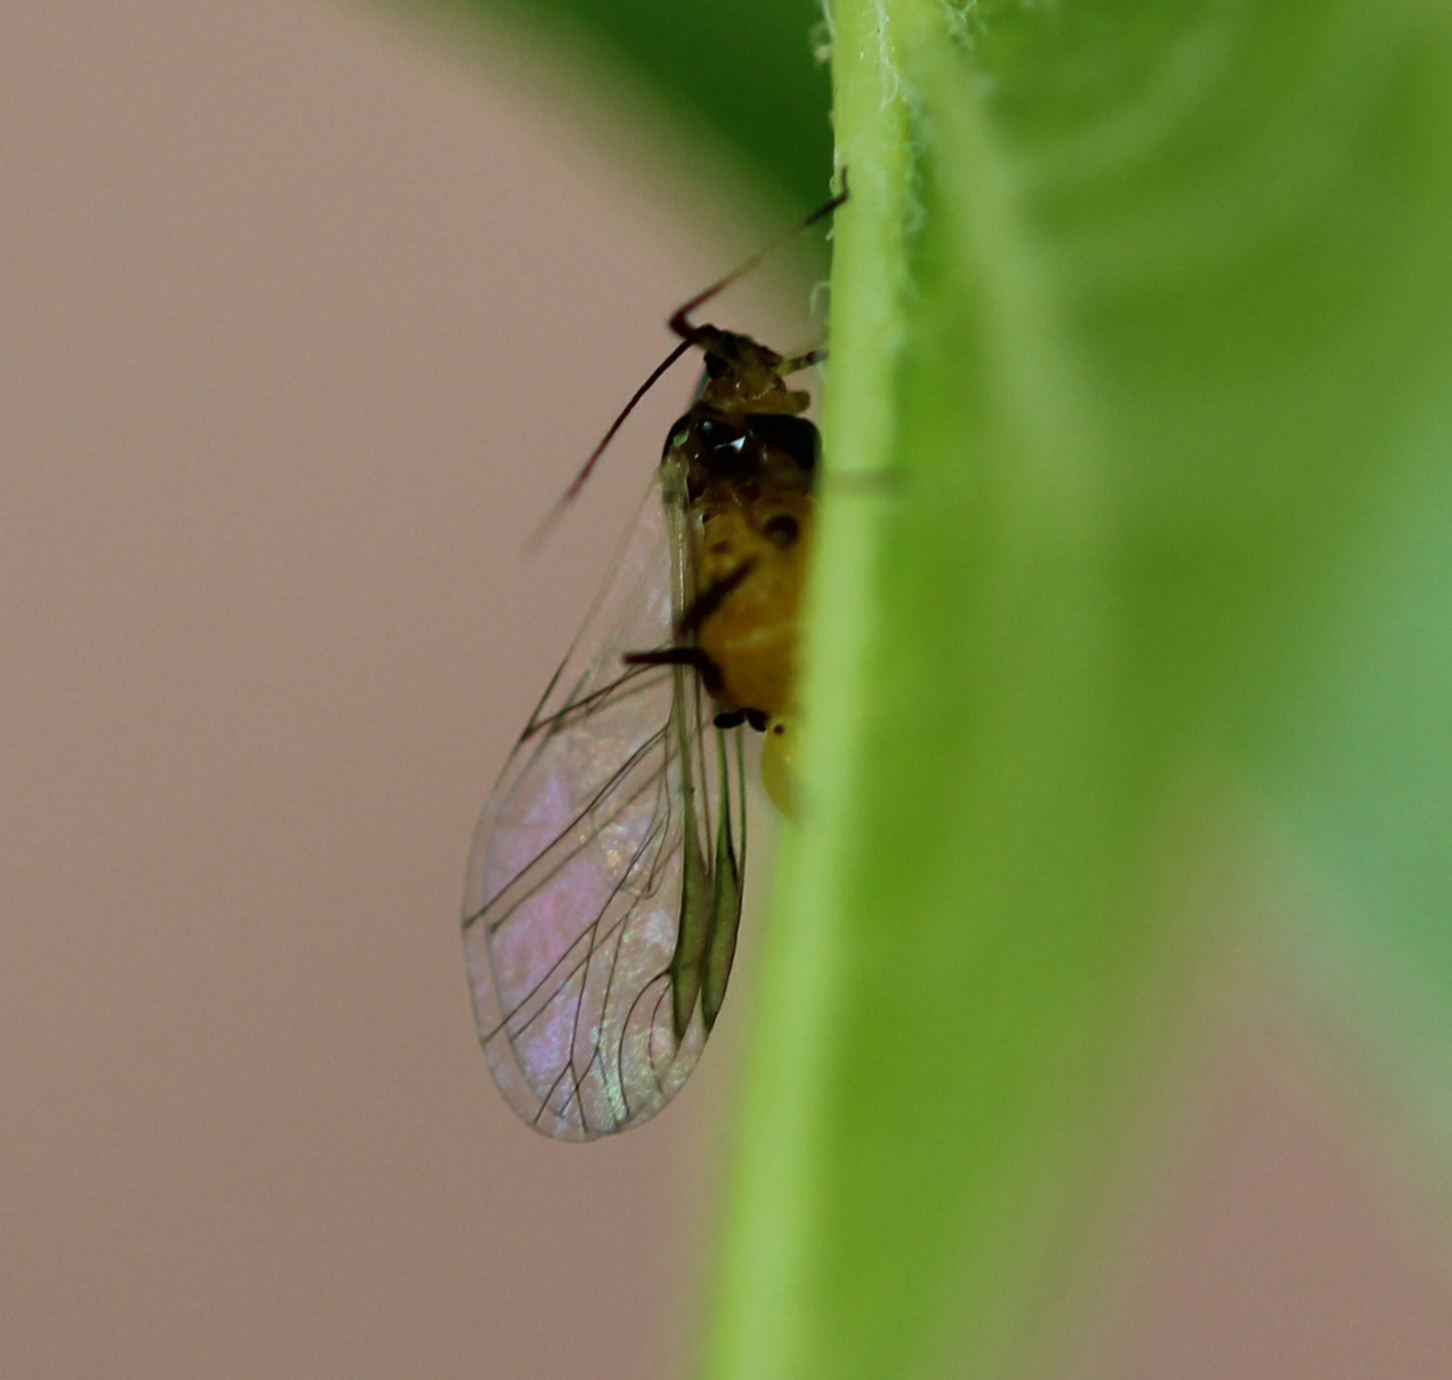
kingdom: Animalia
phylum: Arthropoda
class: Insecta
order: Hemiptera
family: Aphididae
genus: Aphis
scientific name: Aphis nerii
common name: Oleander aphid
